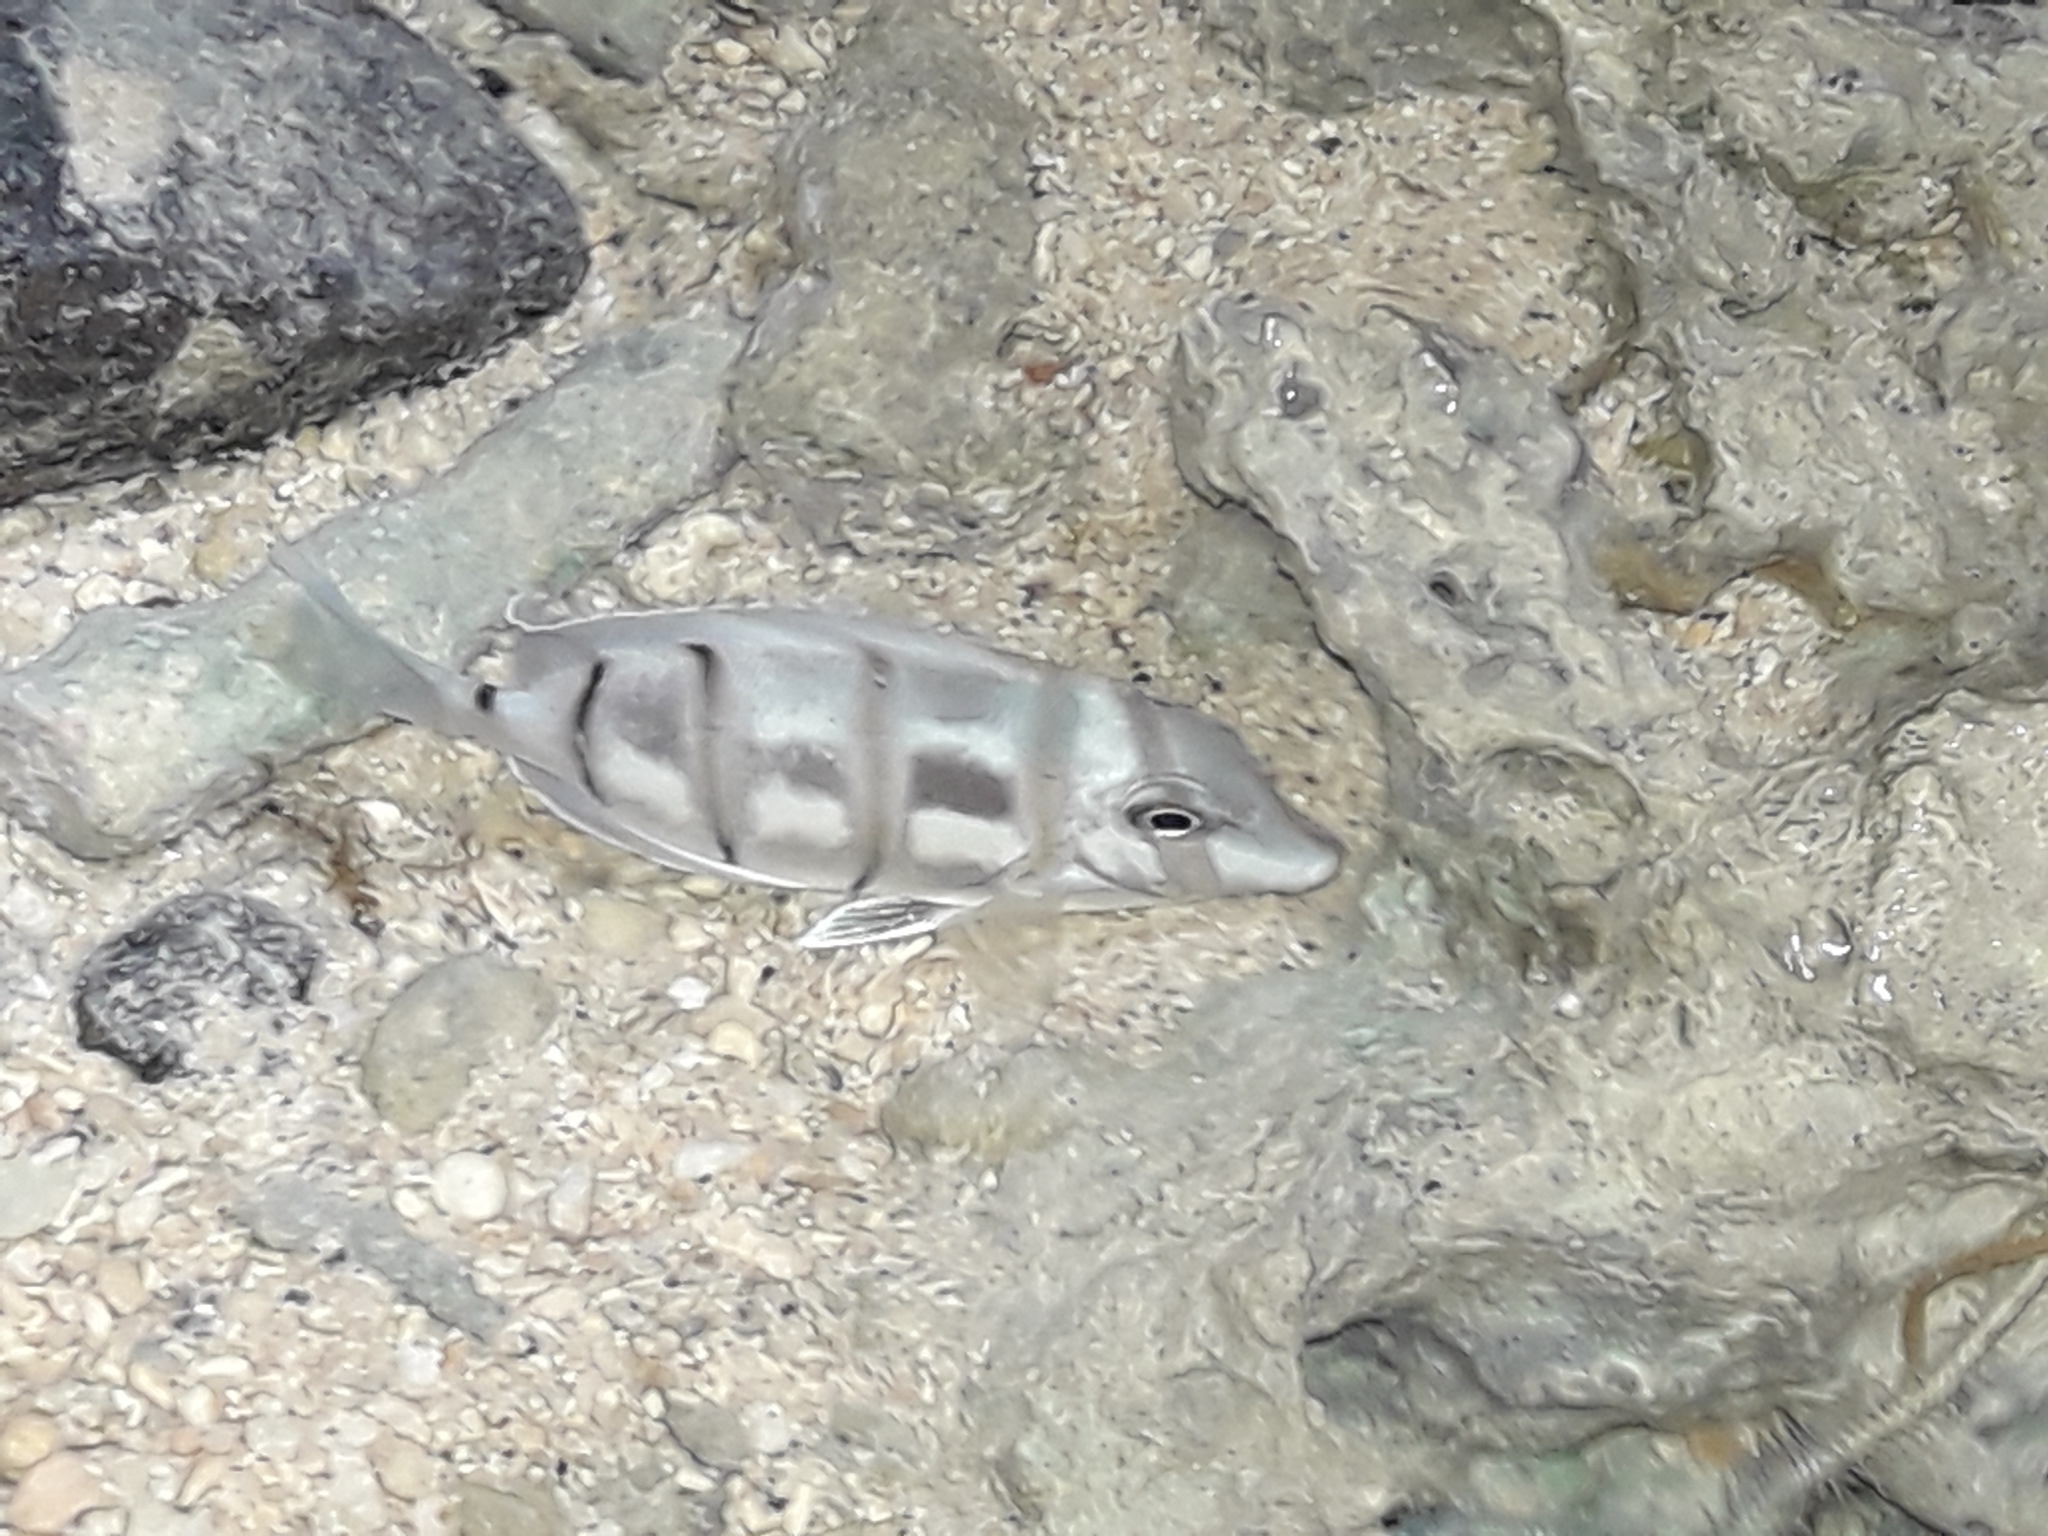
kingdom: Animalia
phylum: Chordata
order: Perciformes
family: Acanthuridae
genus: Acanthurus
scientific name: Acanthurus triostegus
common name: Convict surgeonfish
